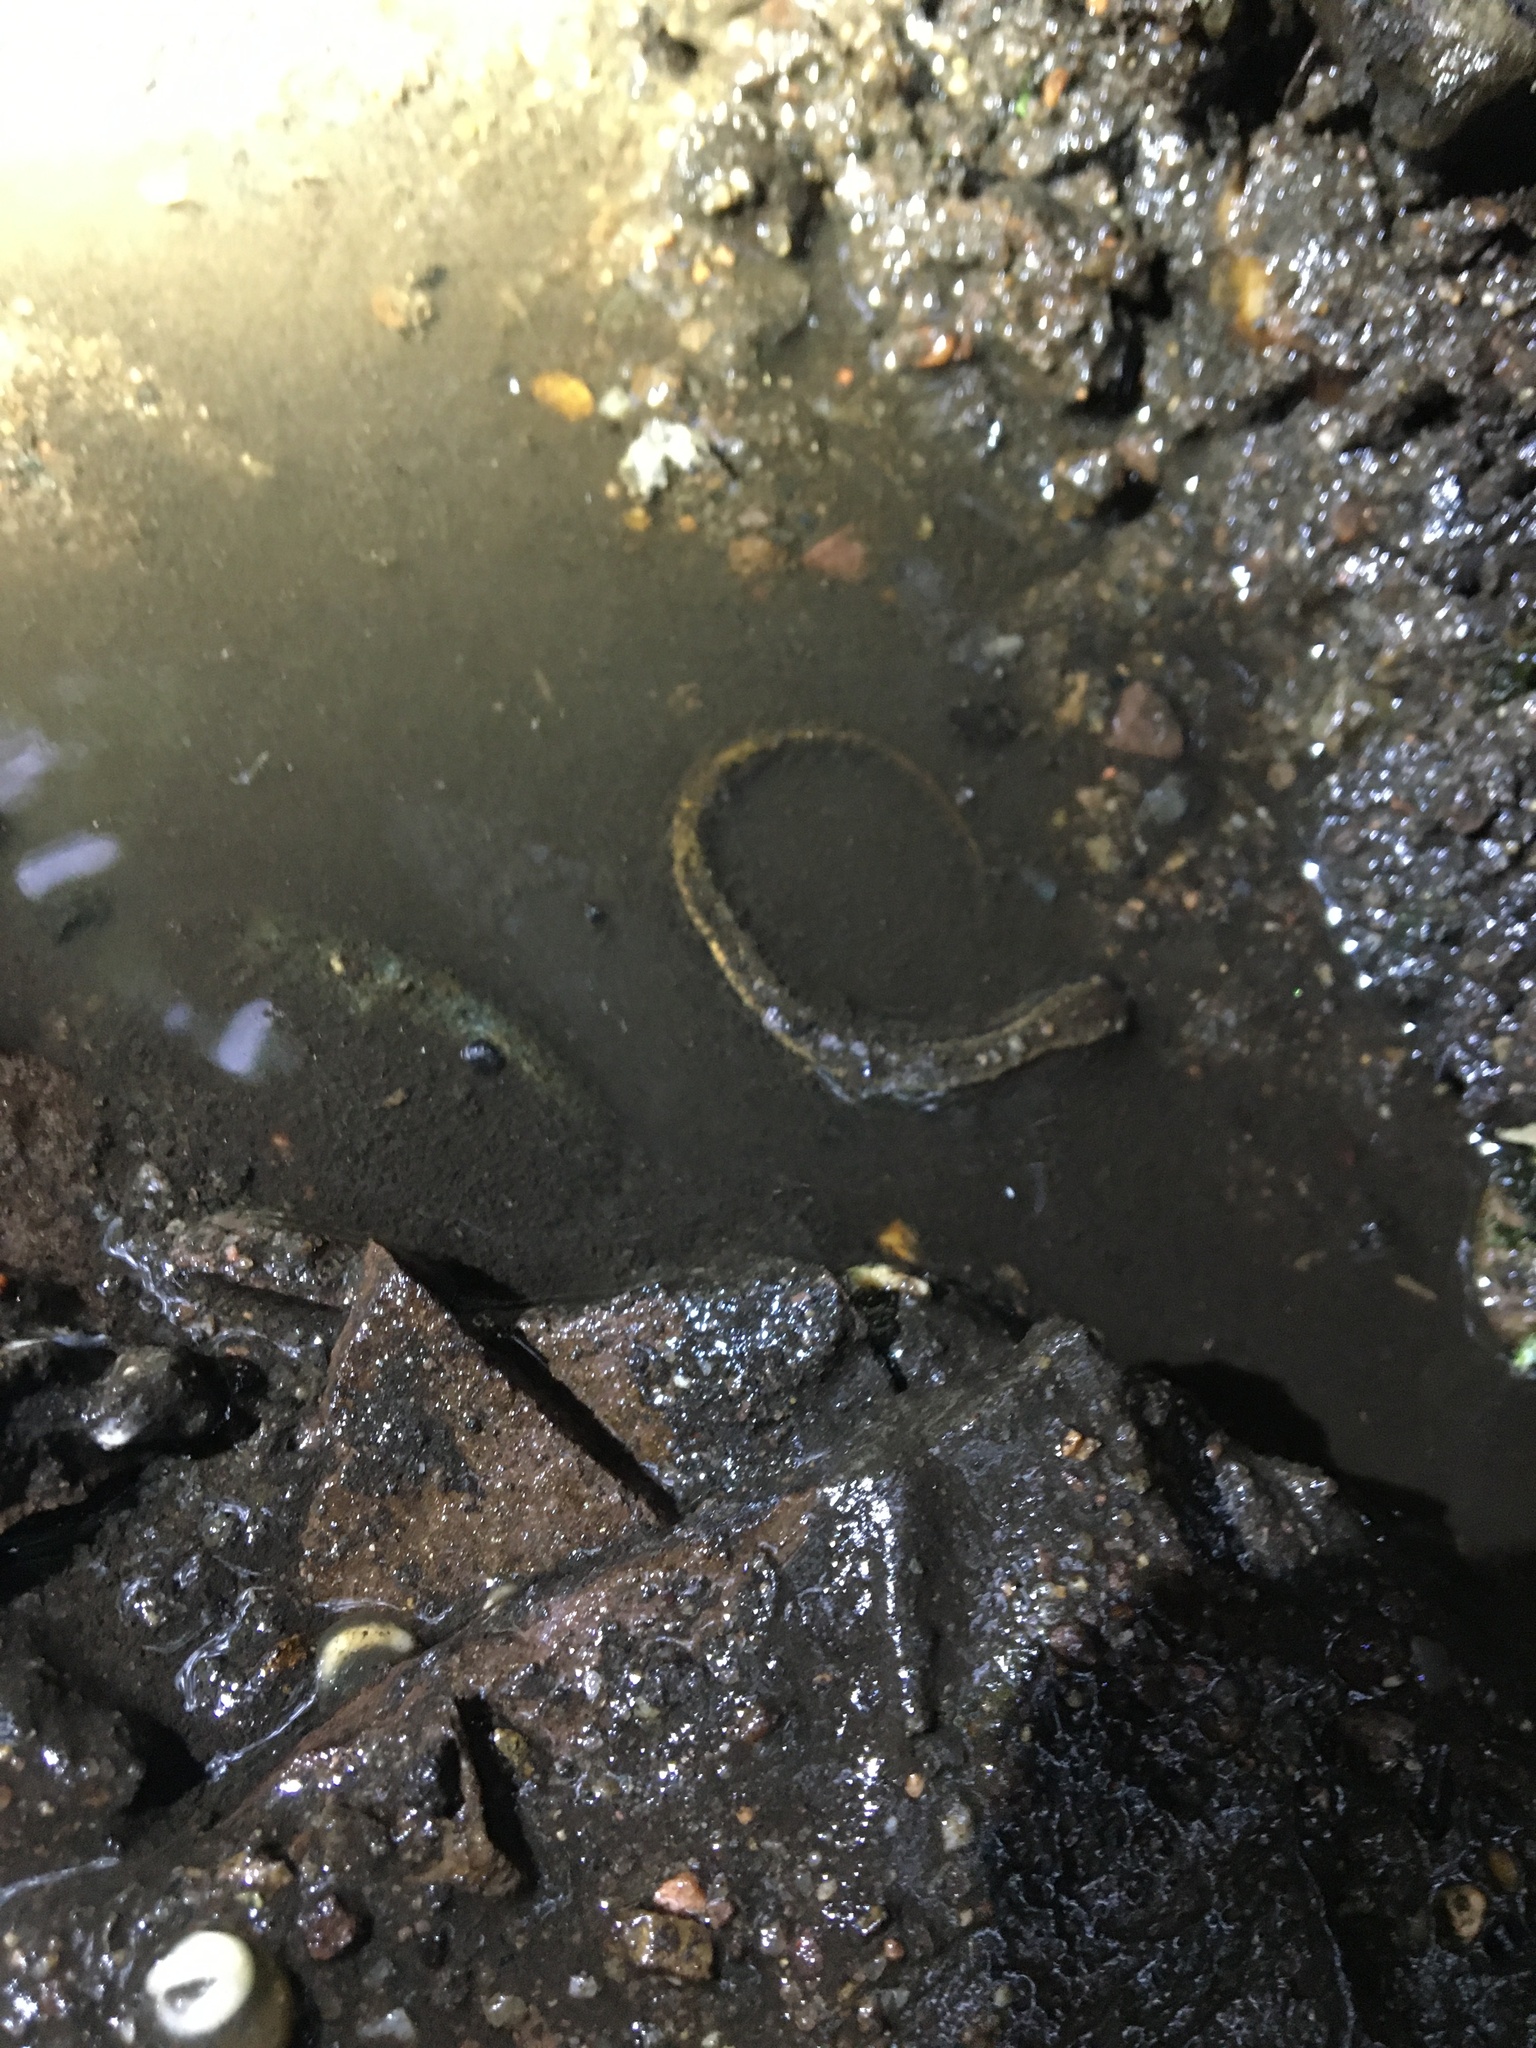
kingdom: Animalia
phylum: Chordata
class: Amphibia
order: Caudata
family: Plethodontidae
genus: Eurycea
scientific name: Eurycea bislineata
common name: Northern two-lined salamander
